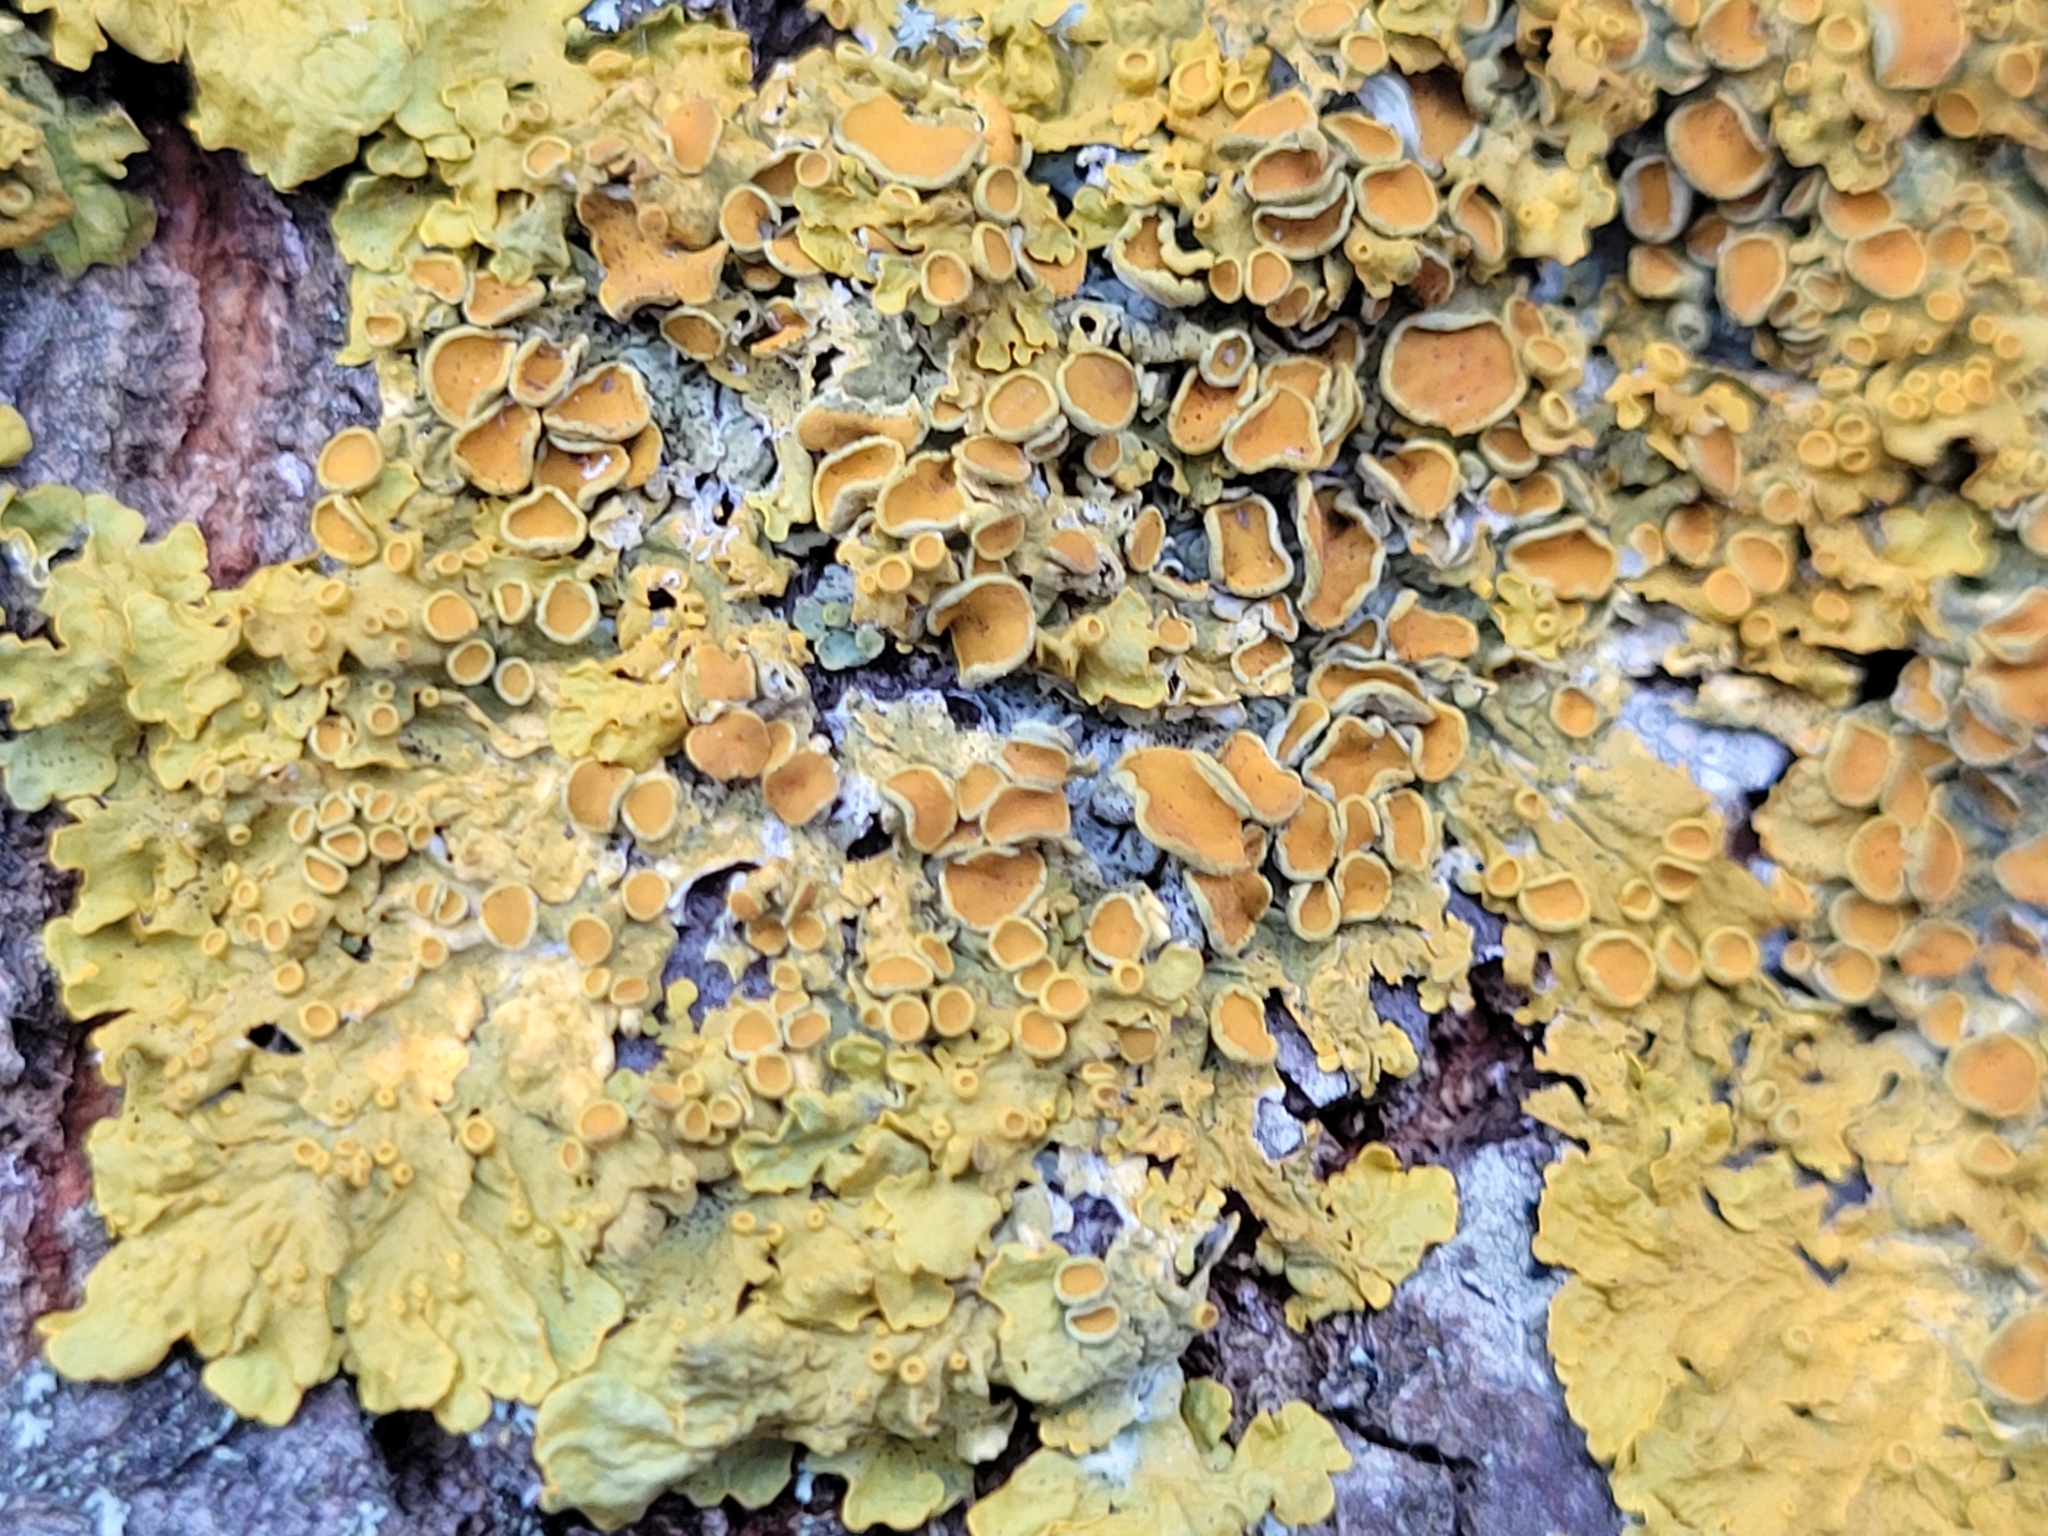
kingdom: Fungi
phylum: Ascomycota
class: Lecanoromycetes
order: Teloschistales
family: Teloschistaceae
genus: Xanthoria
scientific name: Xanthoria parietina
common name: Common orange lichen
